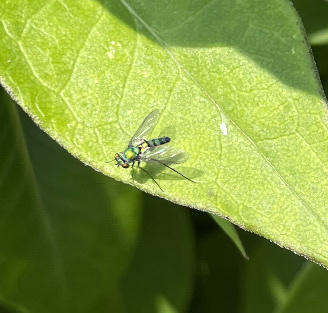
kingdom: Animalia
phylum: Arthropoda
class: Insecta
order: Diptera
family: Dolichopodidae
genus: Condylostylus
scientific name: Condylostylus longicornis
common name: Long-legged fly
